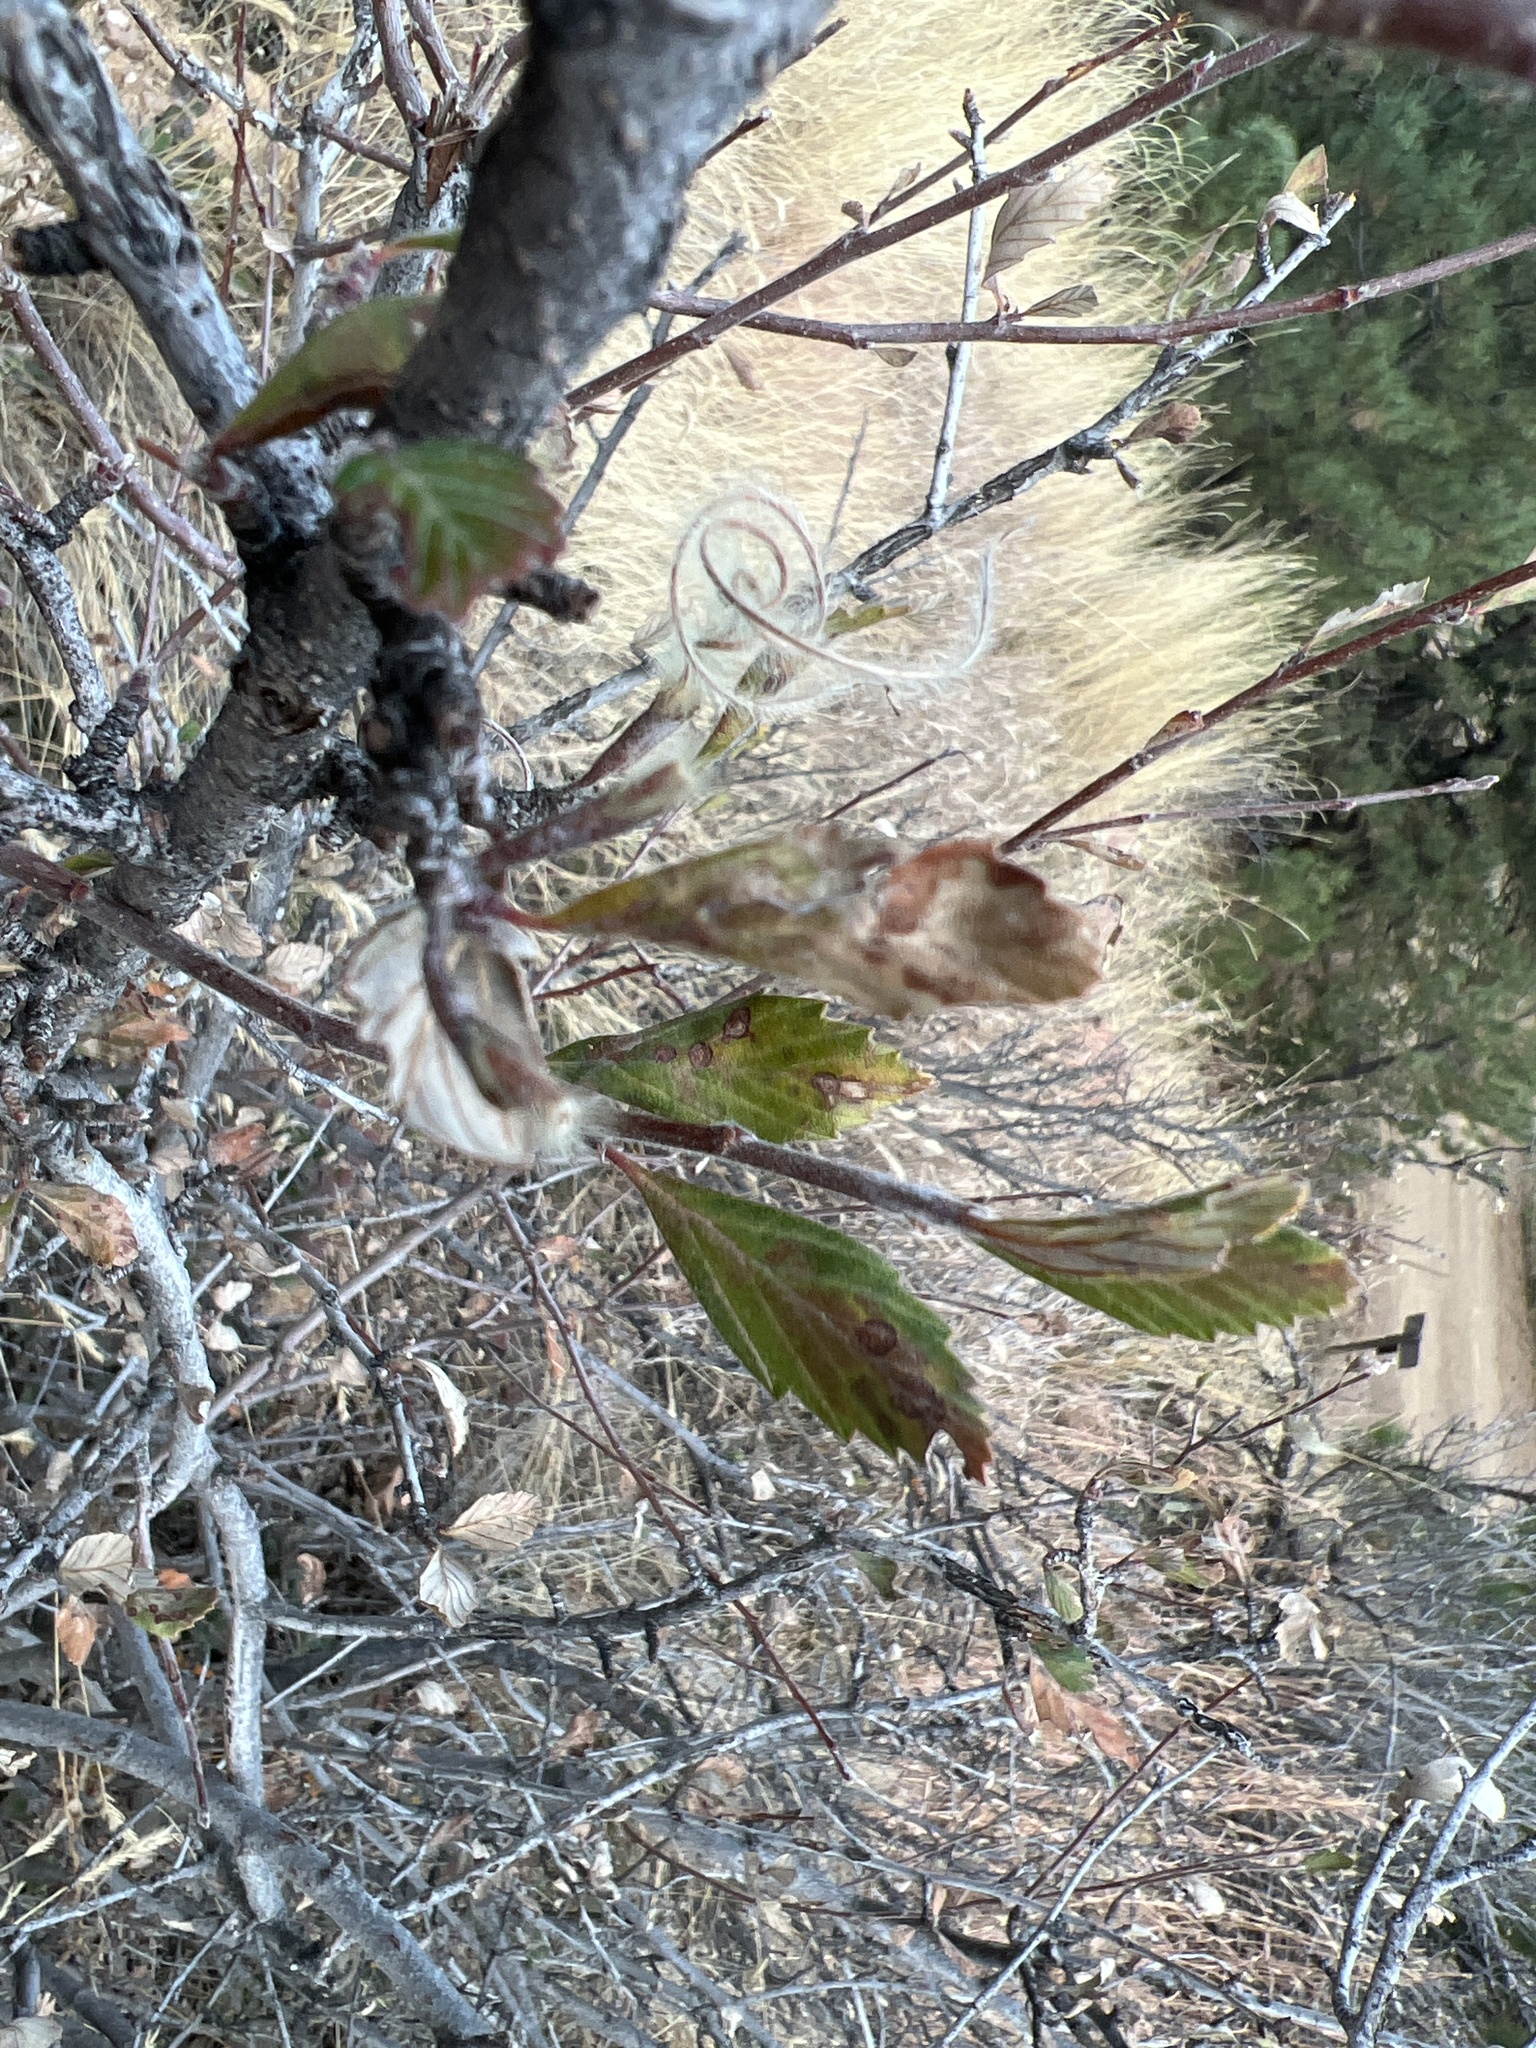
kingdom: Plantae
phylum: Tracheophyta
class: Magnoliopsida
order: Rosales
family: Rosaceae
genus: Cercocarpus
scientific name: Cercocarpus montanus
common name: Alder-leaf cercocarpus
